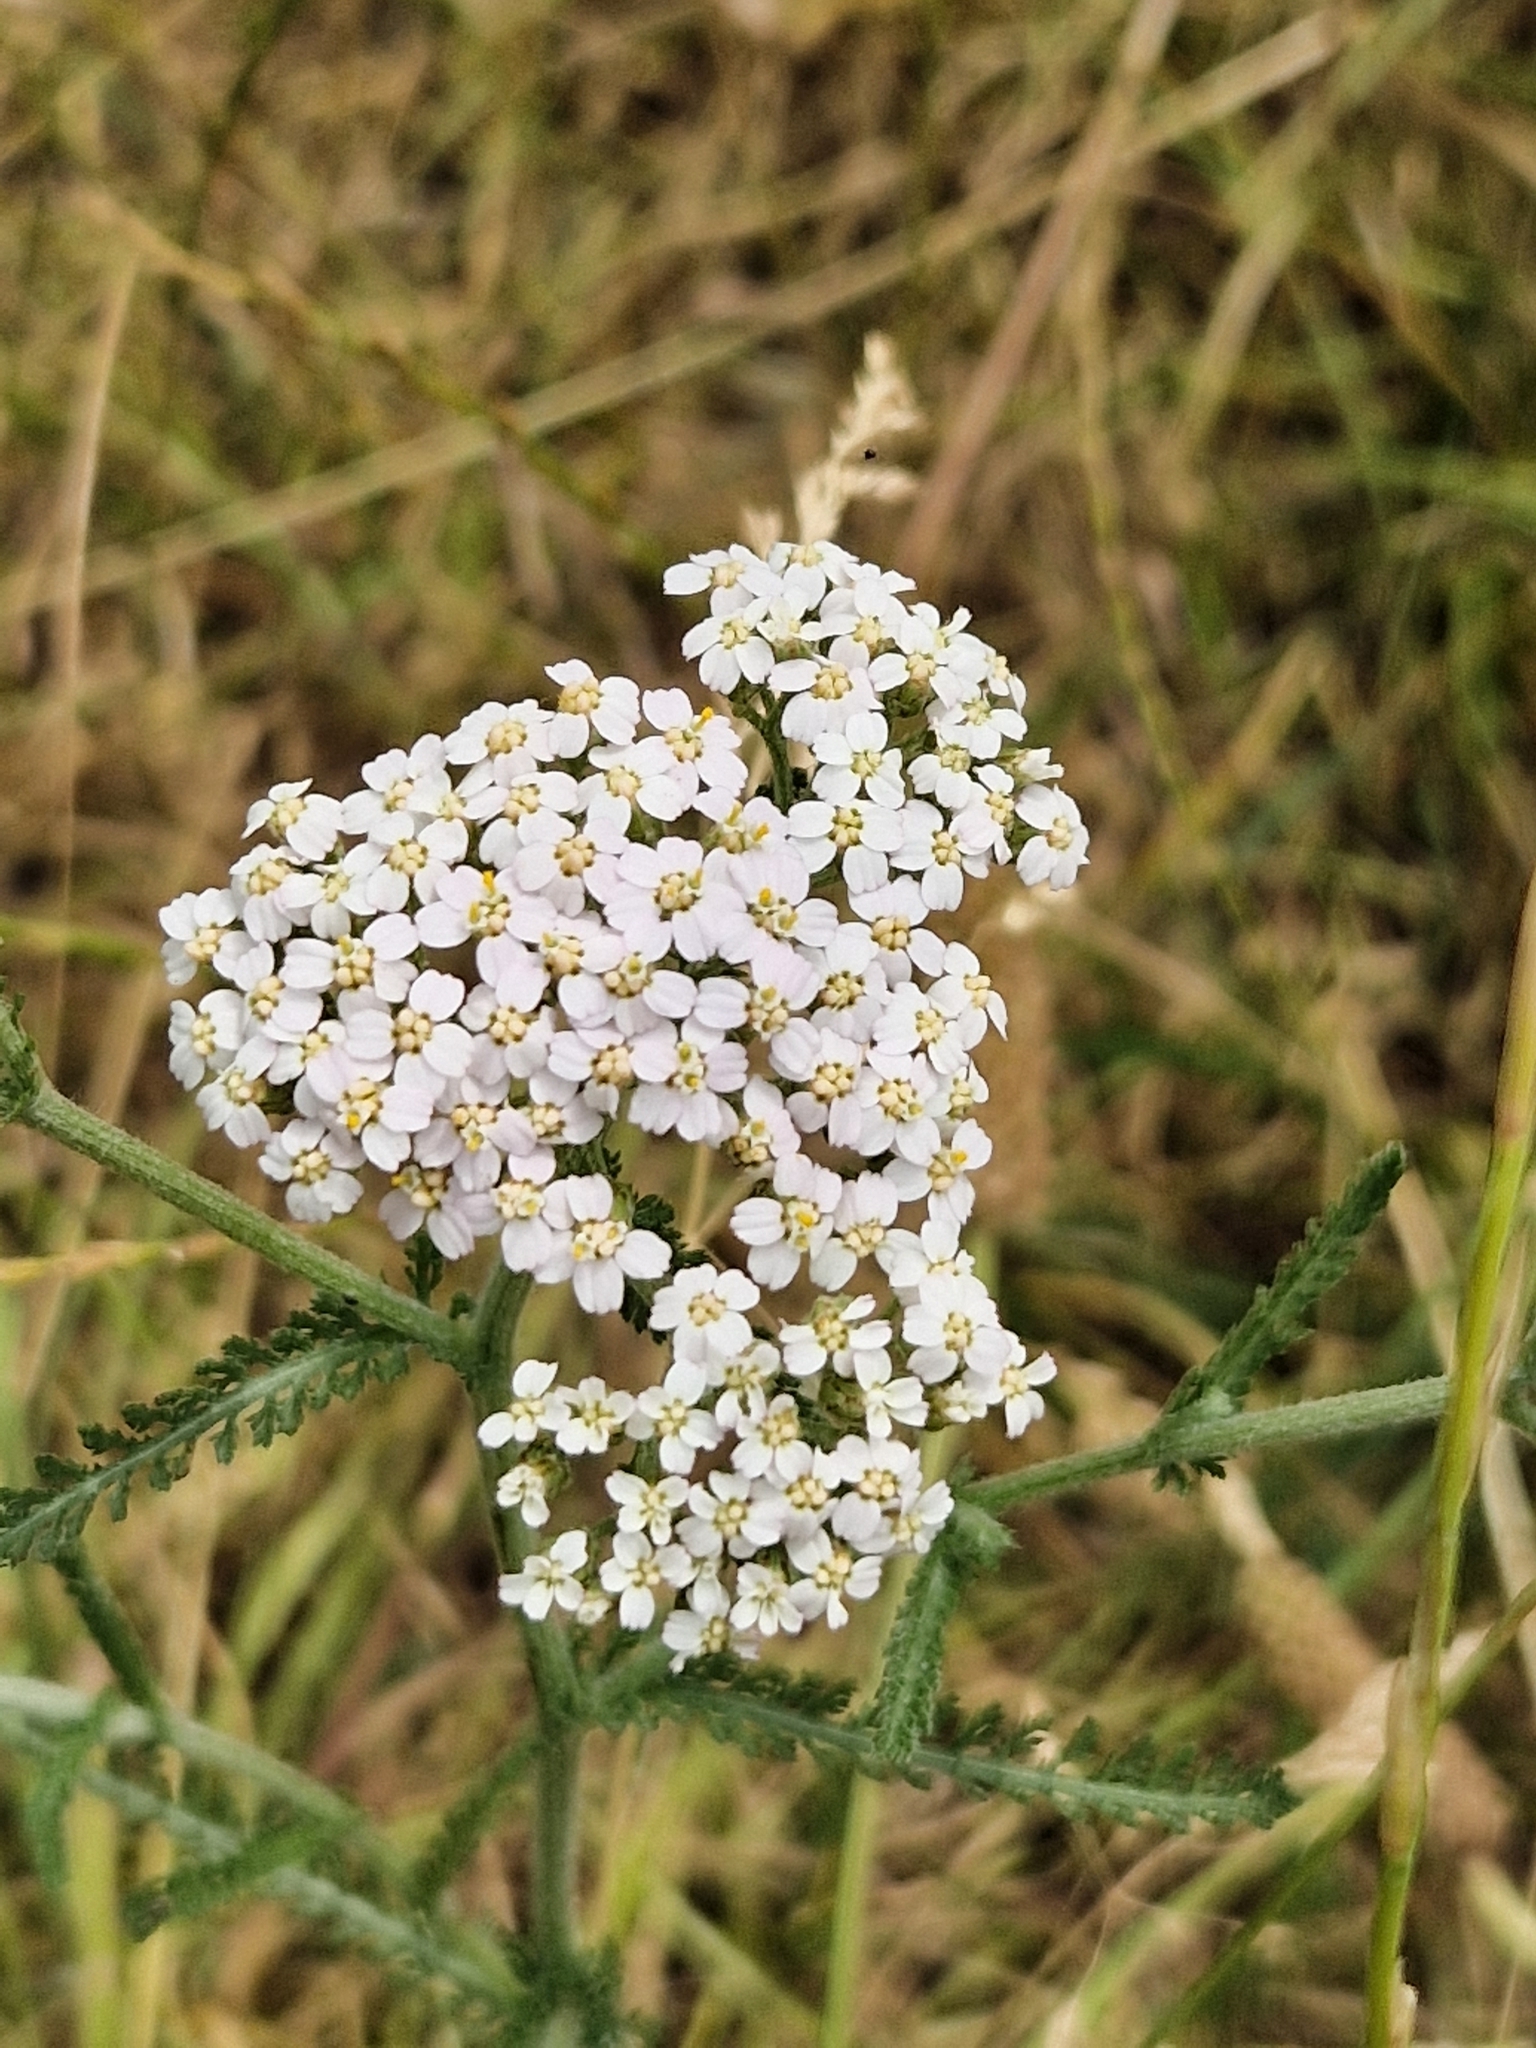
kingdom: Plantae
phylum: Tracheophyta
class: Magnoliopsida
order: Asterales
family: Asteraceae
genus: Achillea
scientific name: Achillea millefolium
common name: Yarrow
